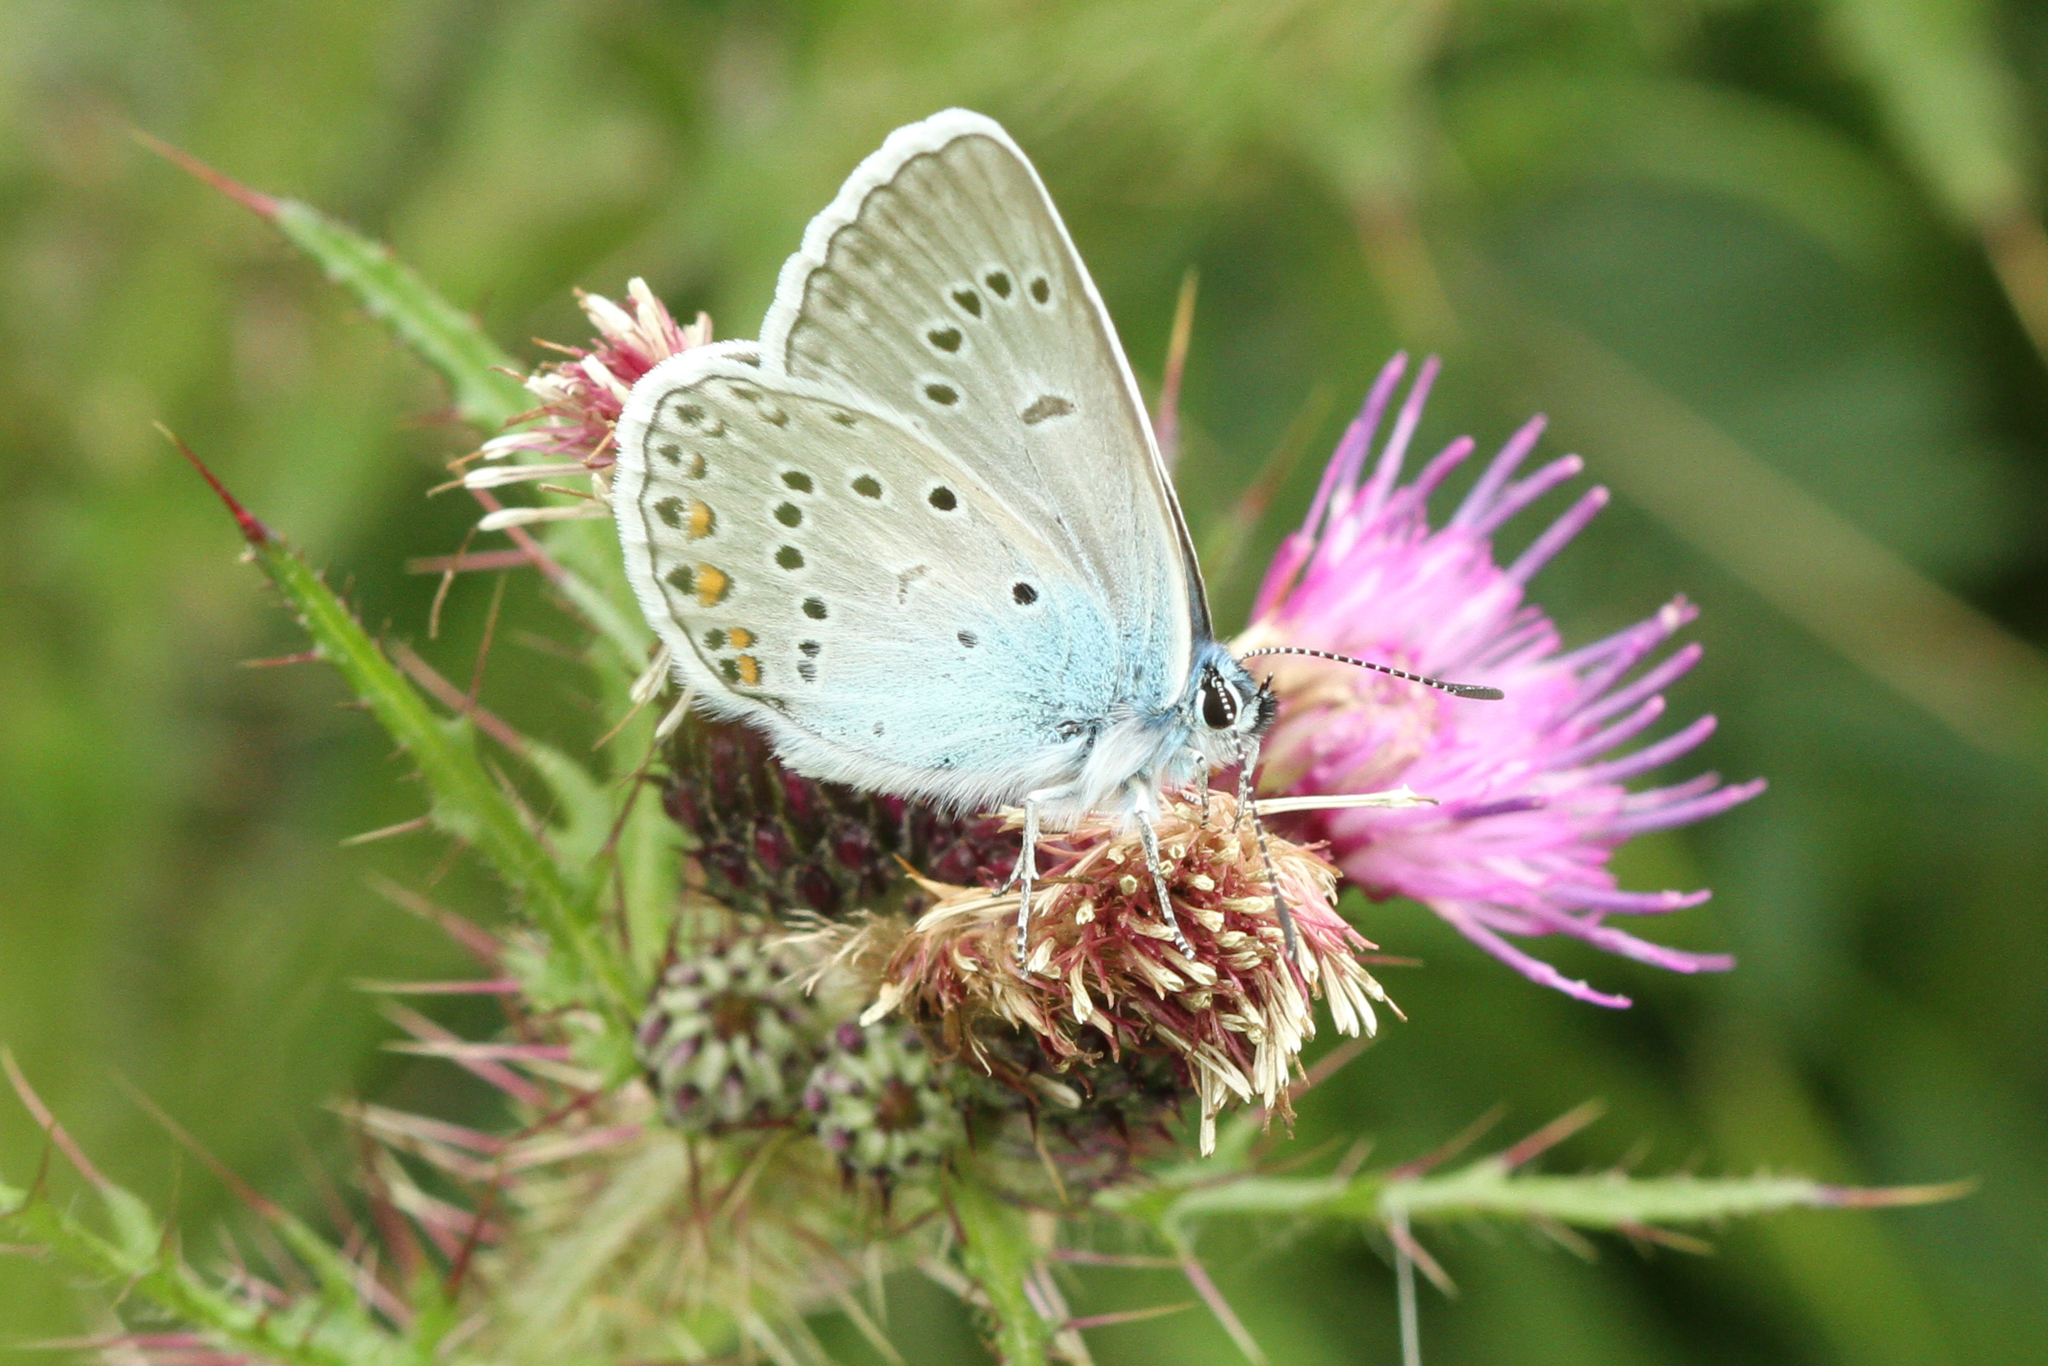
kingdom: Animalia
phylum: Arthropoda
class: Insecta
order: Lepidoptera
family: Lycaenidae
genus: Plebejus
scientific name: Plebejus amanda
